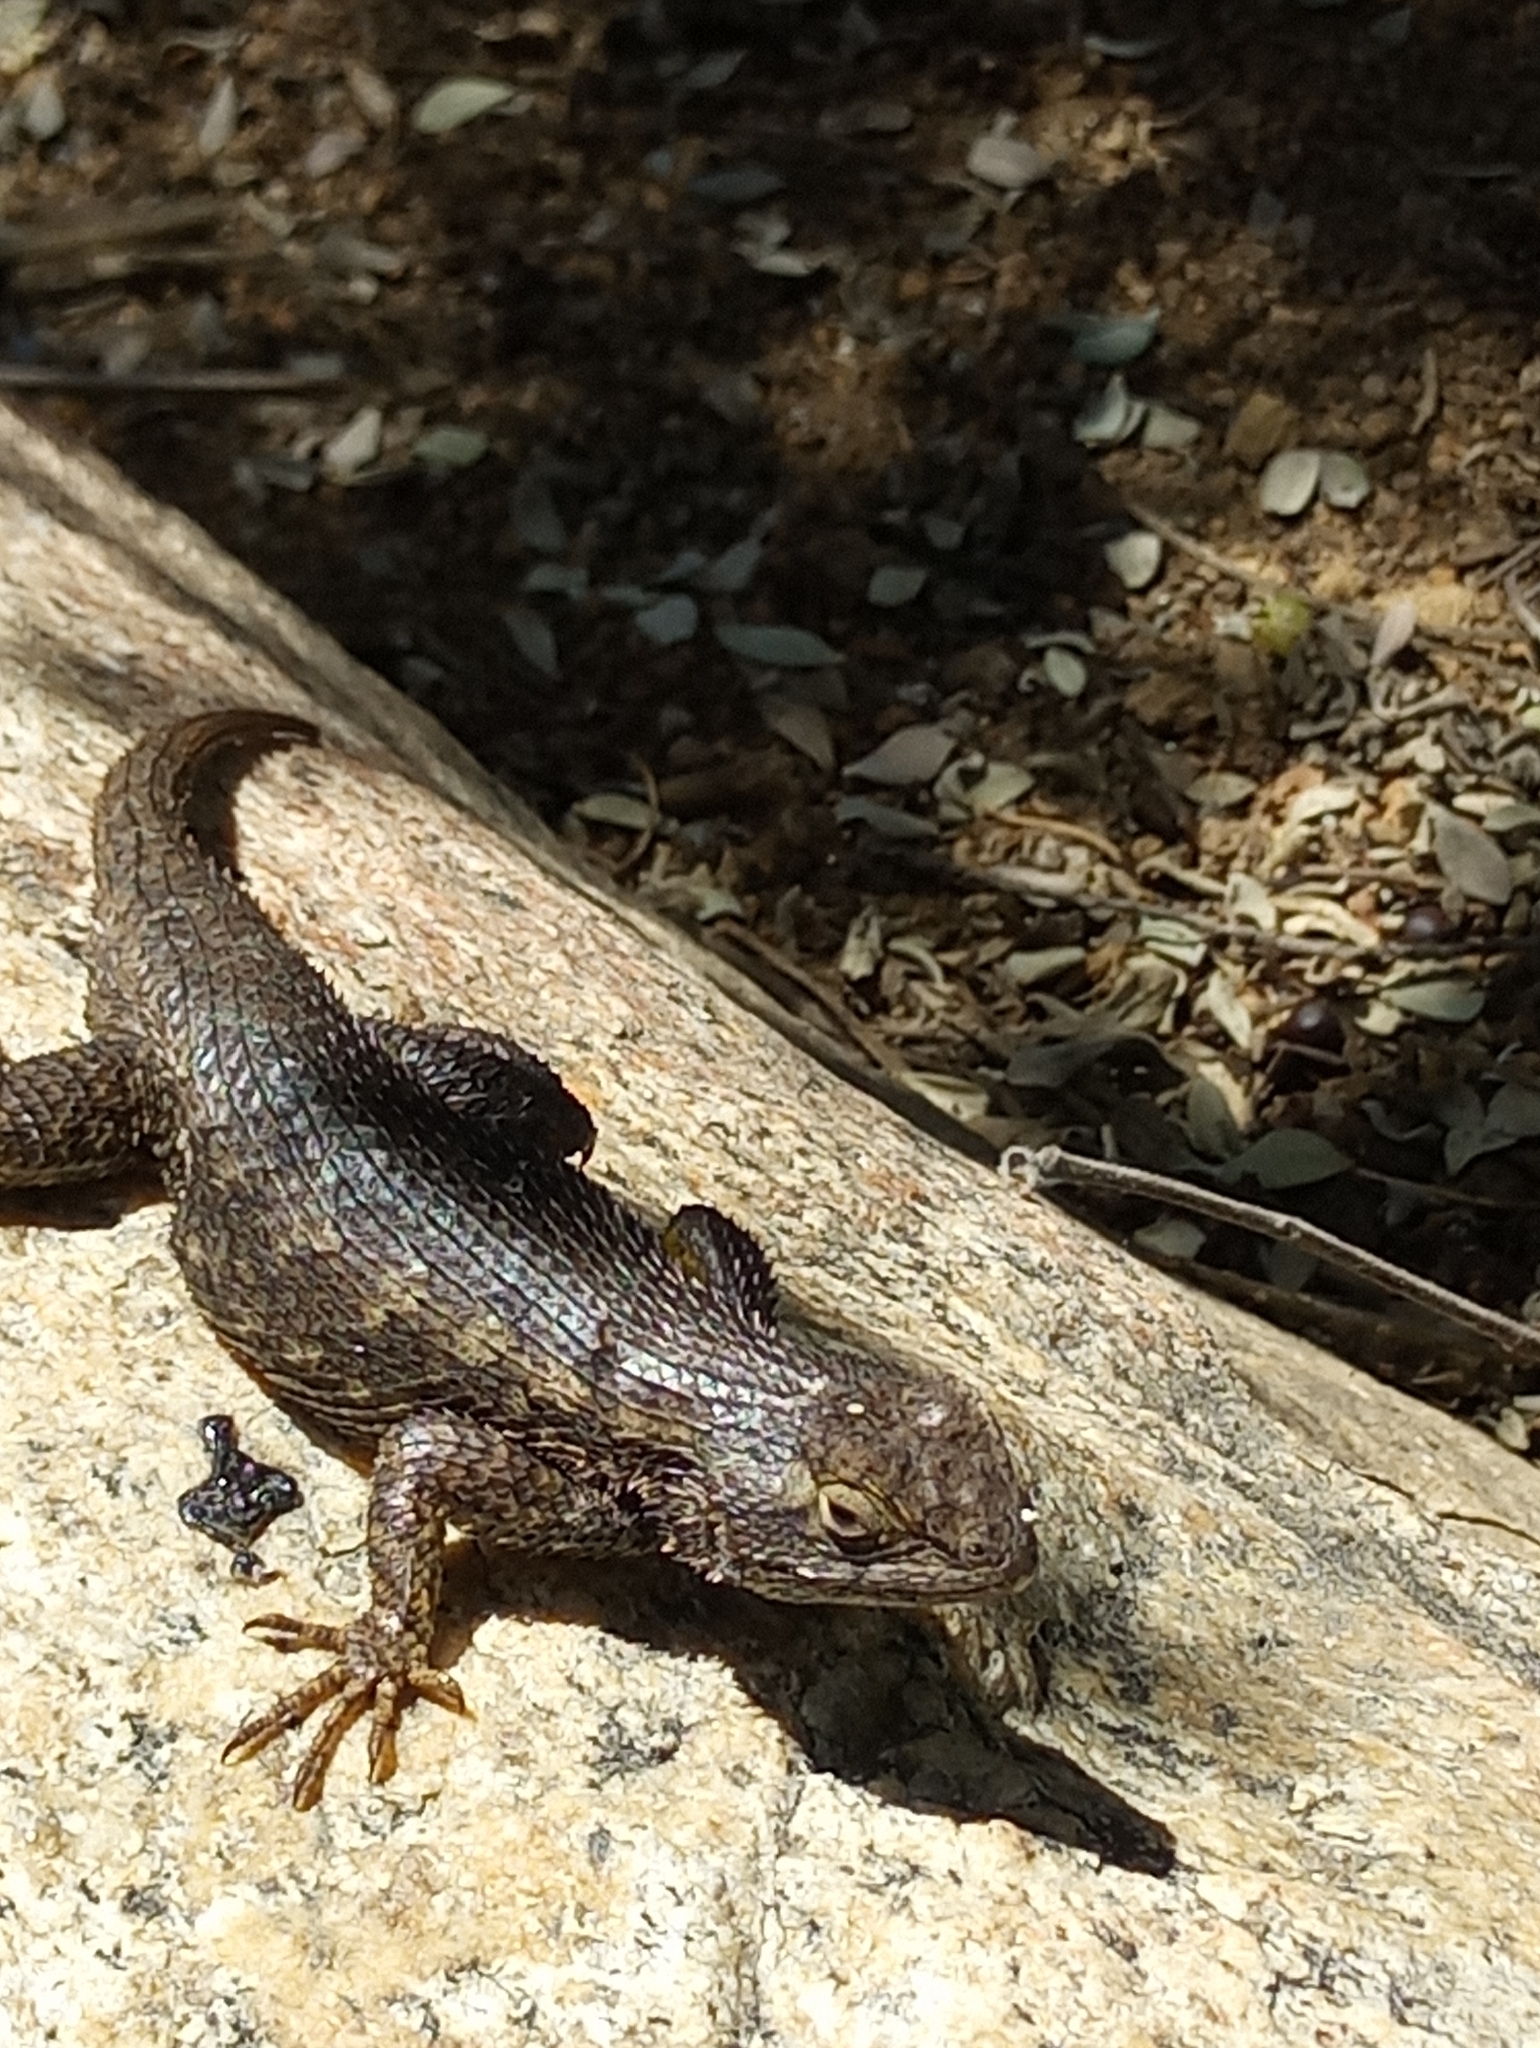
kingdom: Animalia
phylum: Chordata
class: Squamata
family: Phrynosomatidae
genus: Sceloporus
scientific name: Sceloporus occidentalis
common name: Western fence lizard
